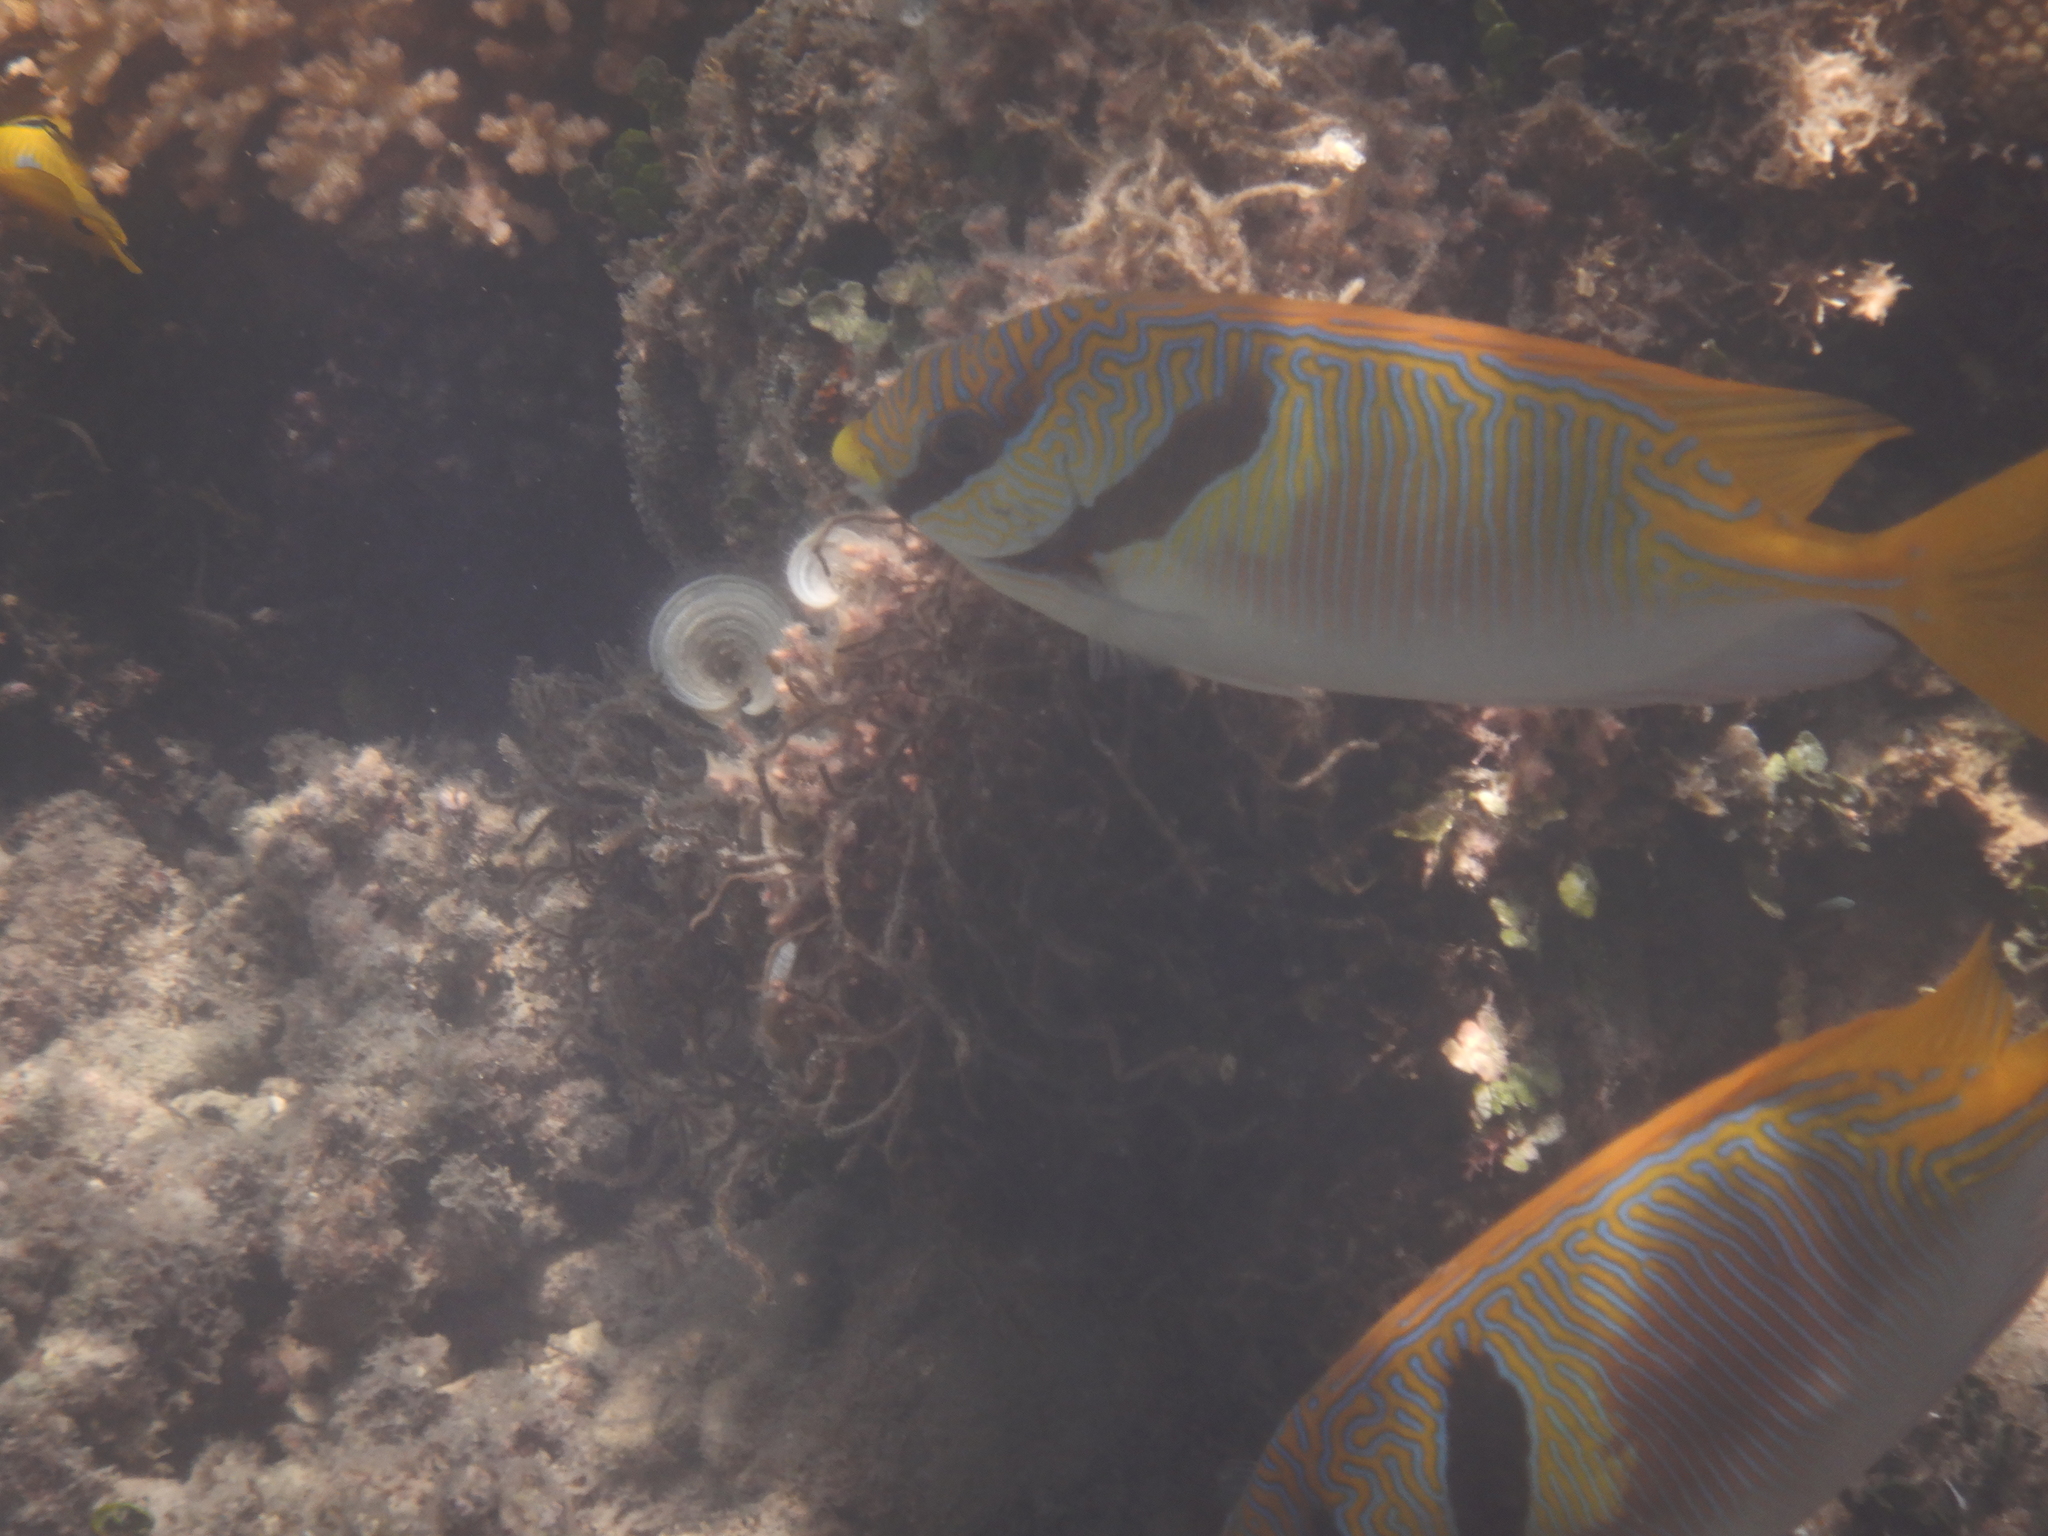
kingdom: Animalia
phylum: Chordata
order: Perciformes
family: Siganidae
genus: Siganus
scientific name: Siganus doliatus
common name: Barred spinefoot
